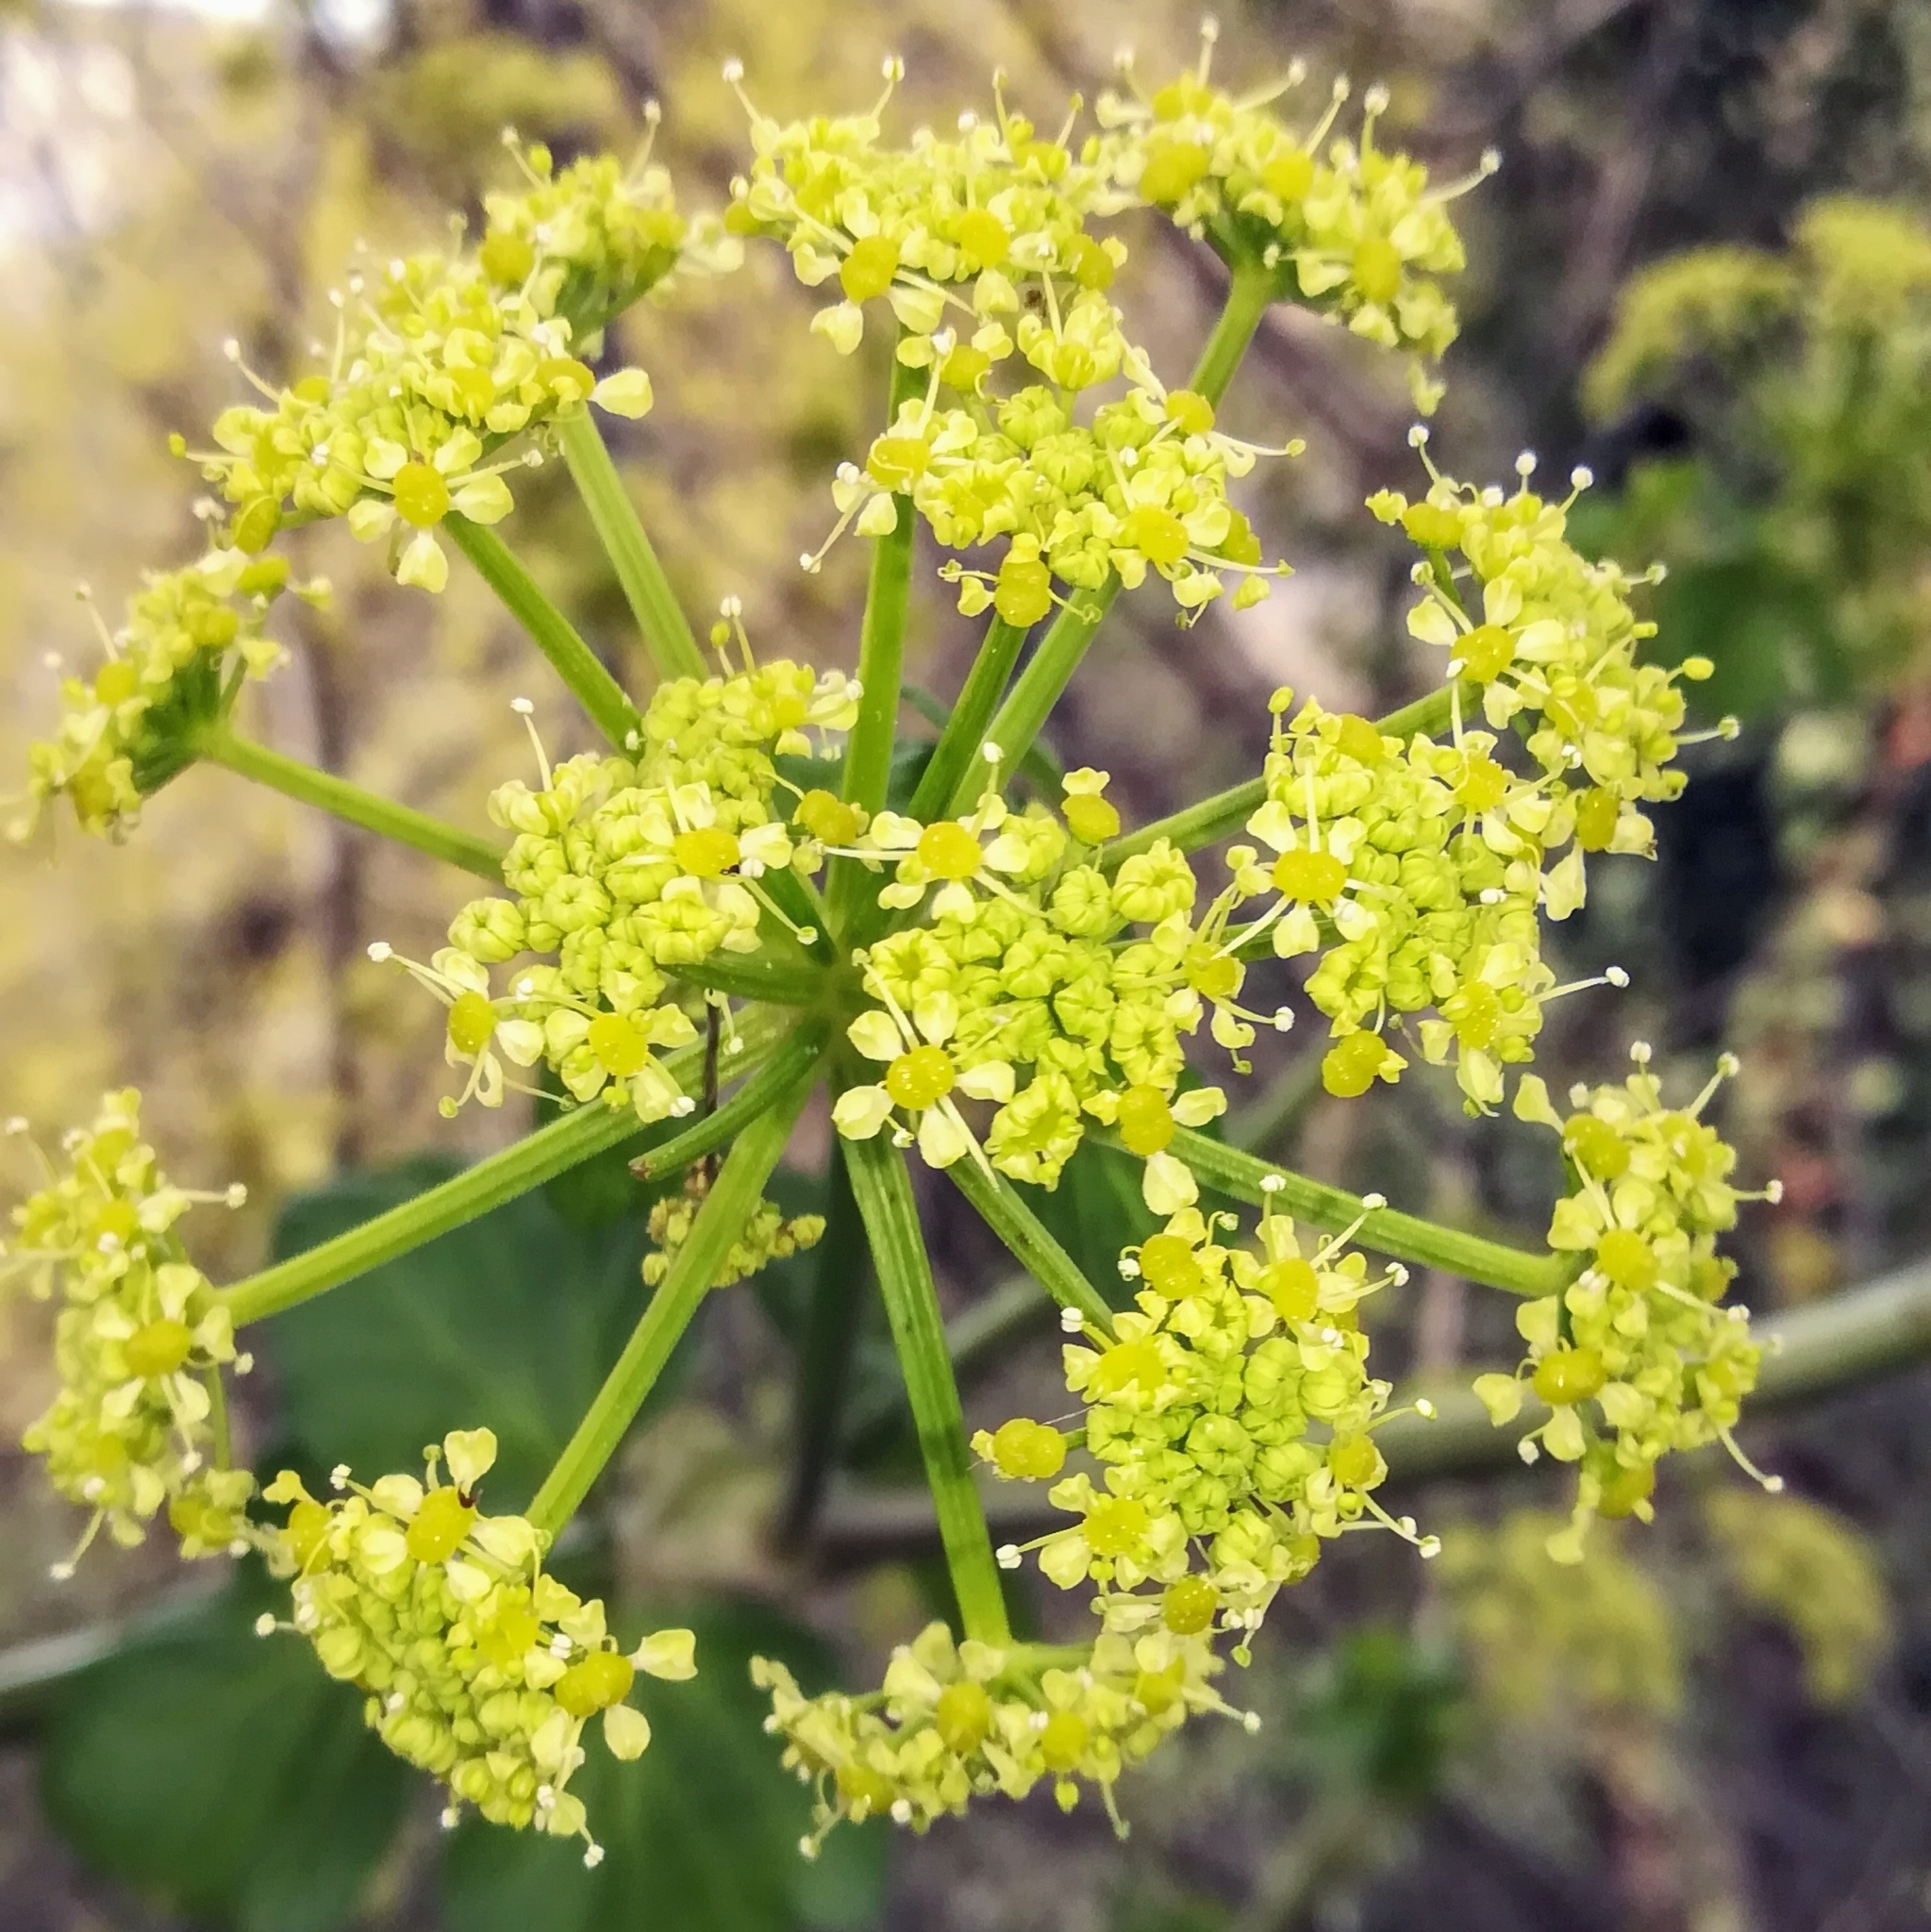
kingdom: Plantae
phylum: Tracheophyta
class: Magnoliopsida
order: Apiales
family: Apiaceae
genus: Smyrnium
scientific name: Smyrnium olusatrum
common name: Alexanders
